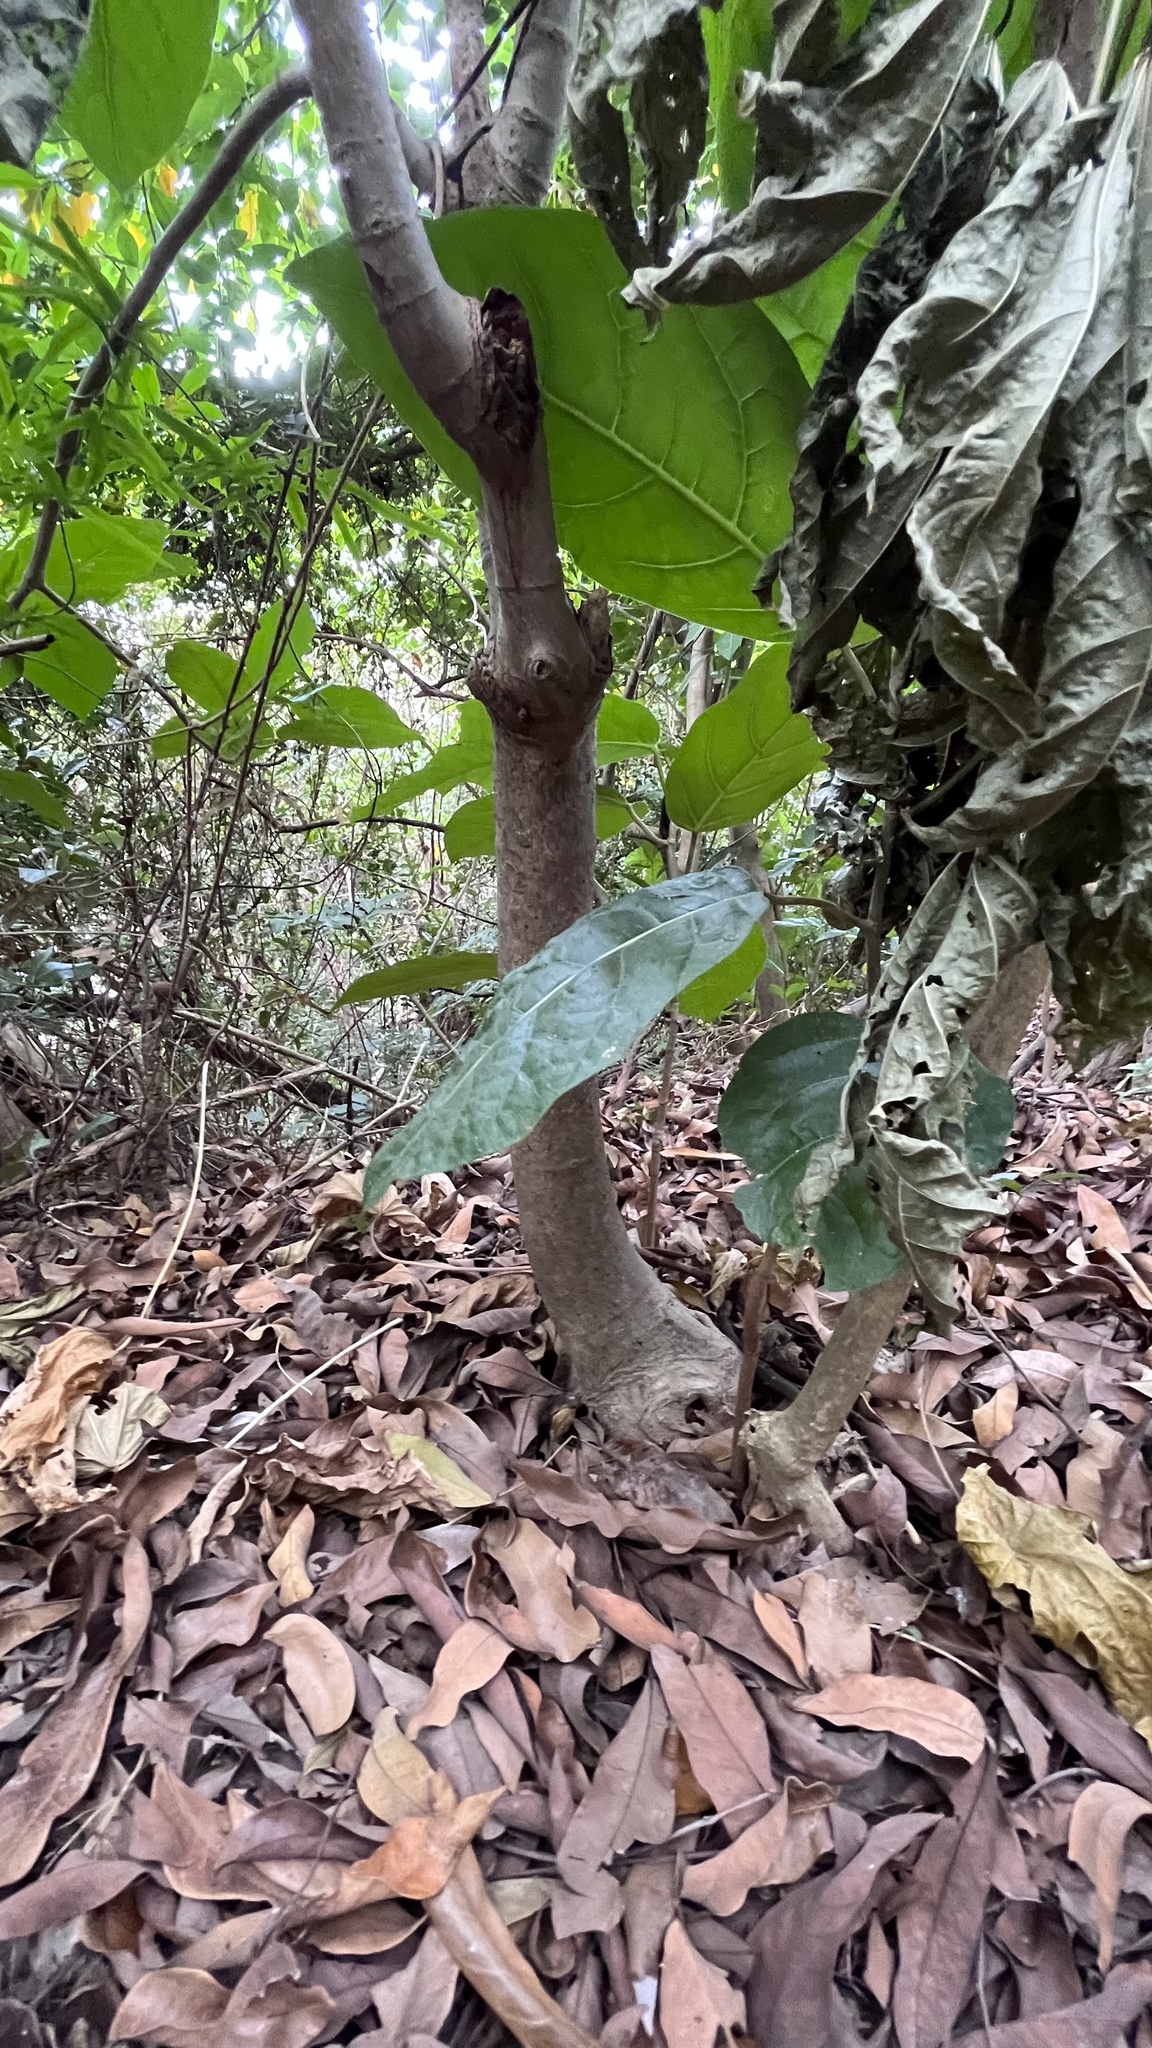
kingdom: Plantae
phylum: Tracheophyta
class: Magnoliopsida
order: Rosales
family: Moraceae
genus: Ficus
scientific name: Ficus septica
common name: Septic fig
